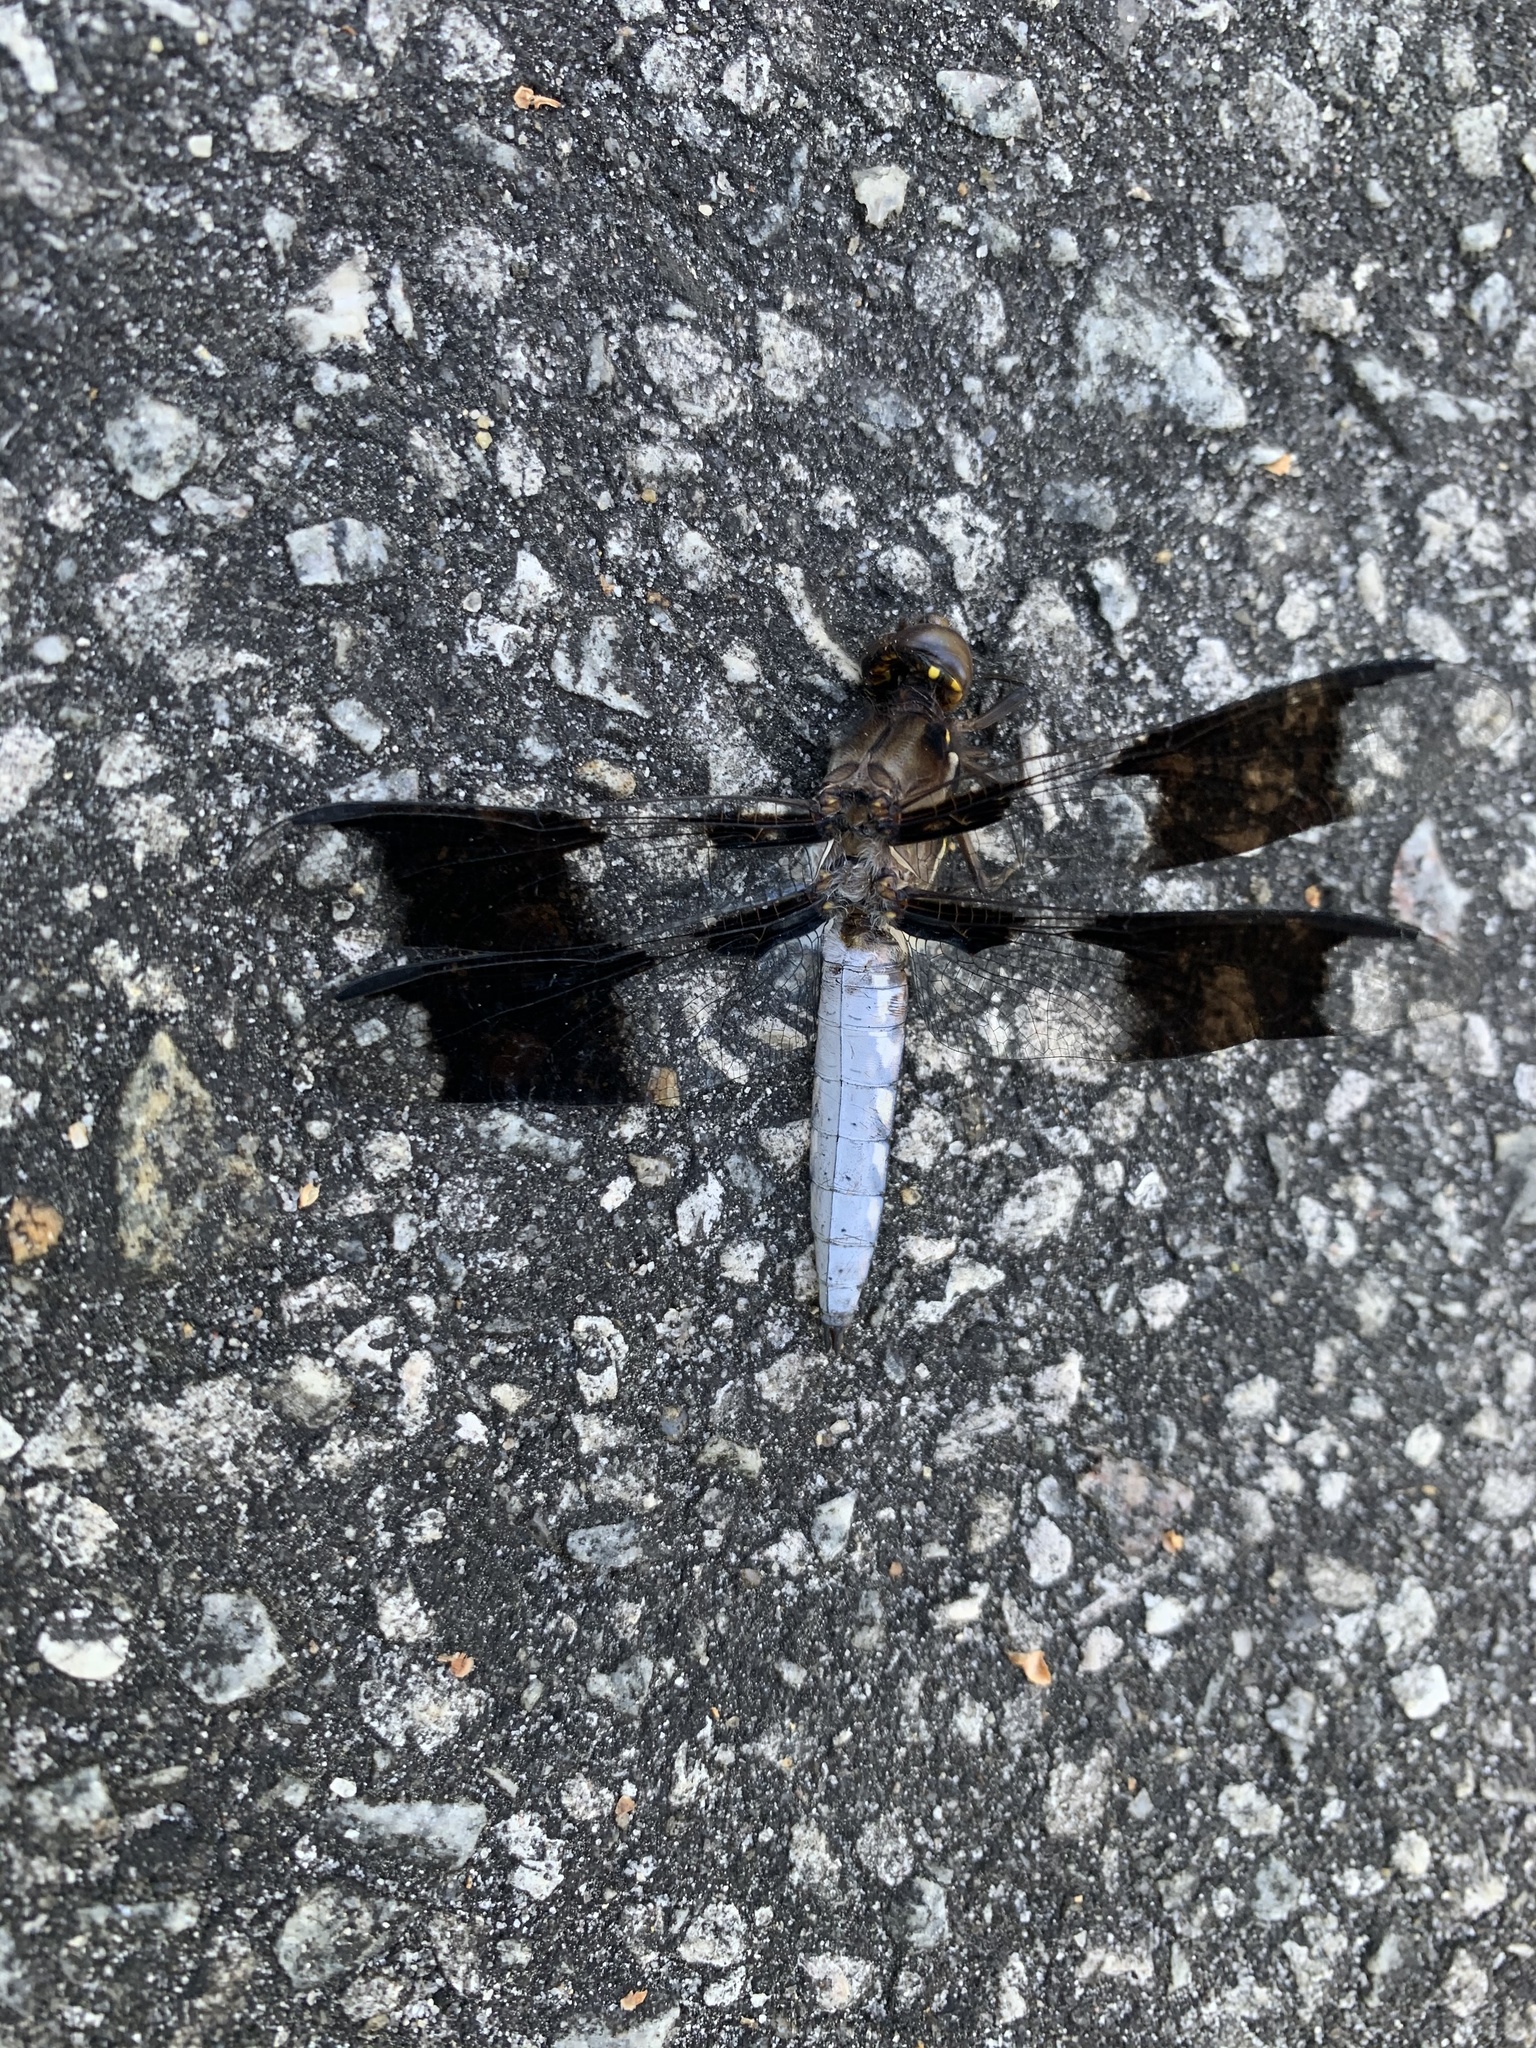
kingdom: Animalia
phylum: Arthropoda
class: Insecta
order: Odonata
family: Libellulidae
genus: Plathemis
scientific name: Plathemis lydia
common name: Common whitetail
